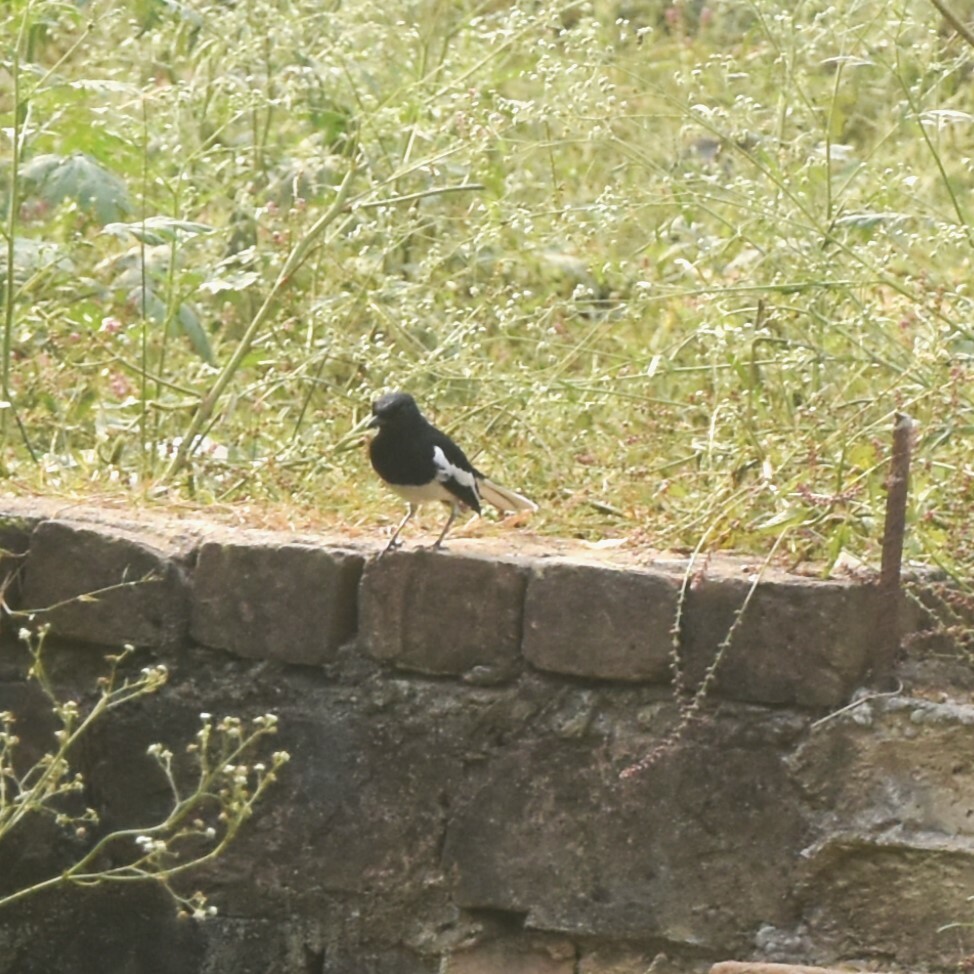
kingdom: Animalia
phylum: Chordata
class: Aves
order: Passeriformes
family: Muscicapidae
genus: Copsychus
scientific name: Copsychus saularis
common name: Oriental magpie-robin
